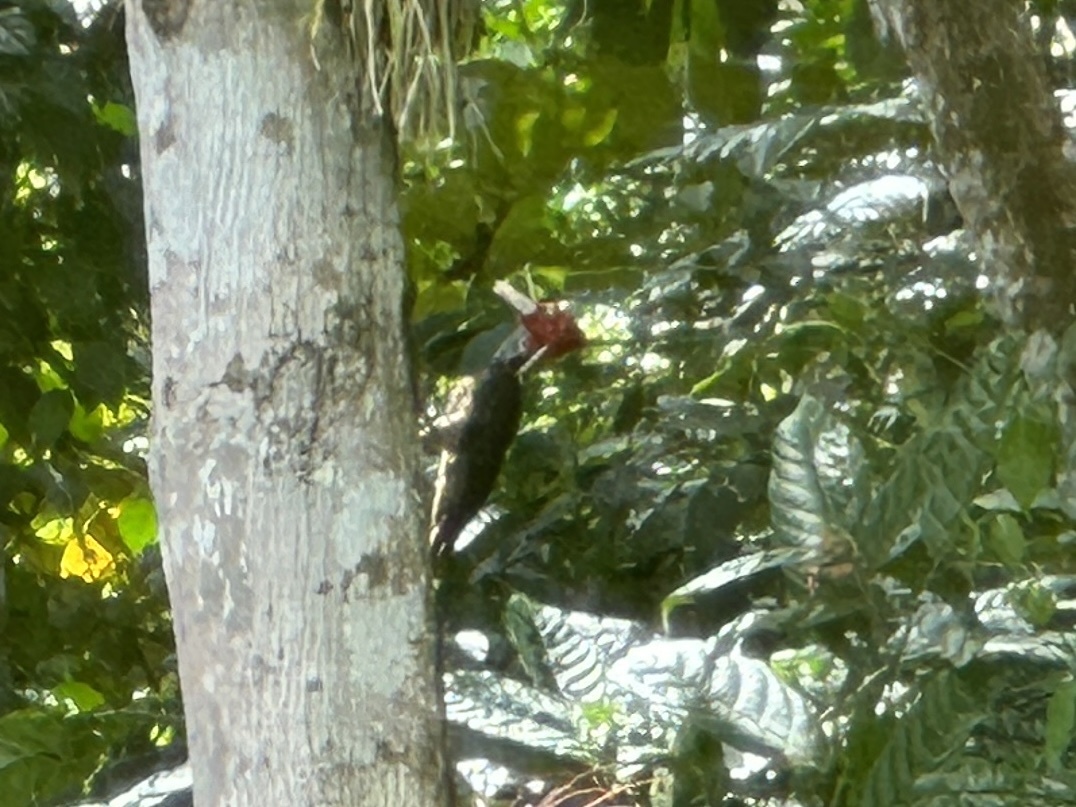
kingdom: Animalia
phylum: Chordata
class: Aves
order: Piciformes
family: Picidae
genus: Campephilus
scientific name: Campephilus guatemalensis
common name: Pale-billed woodpecker
